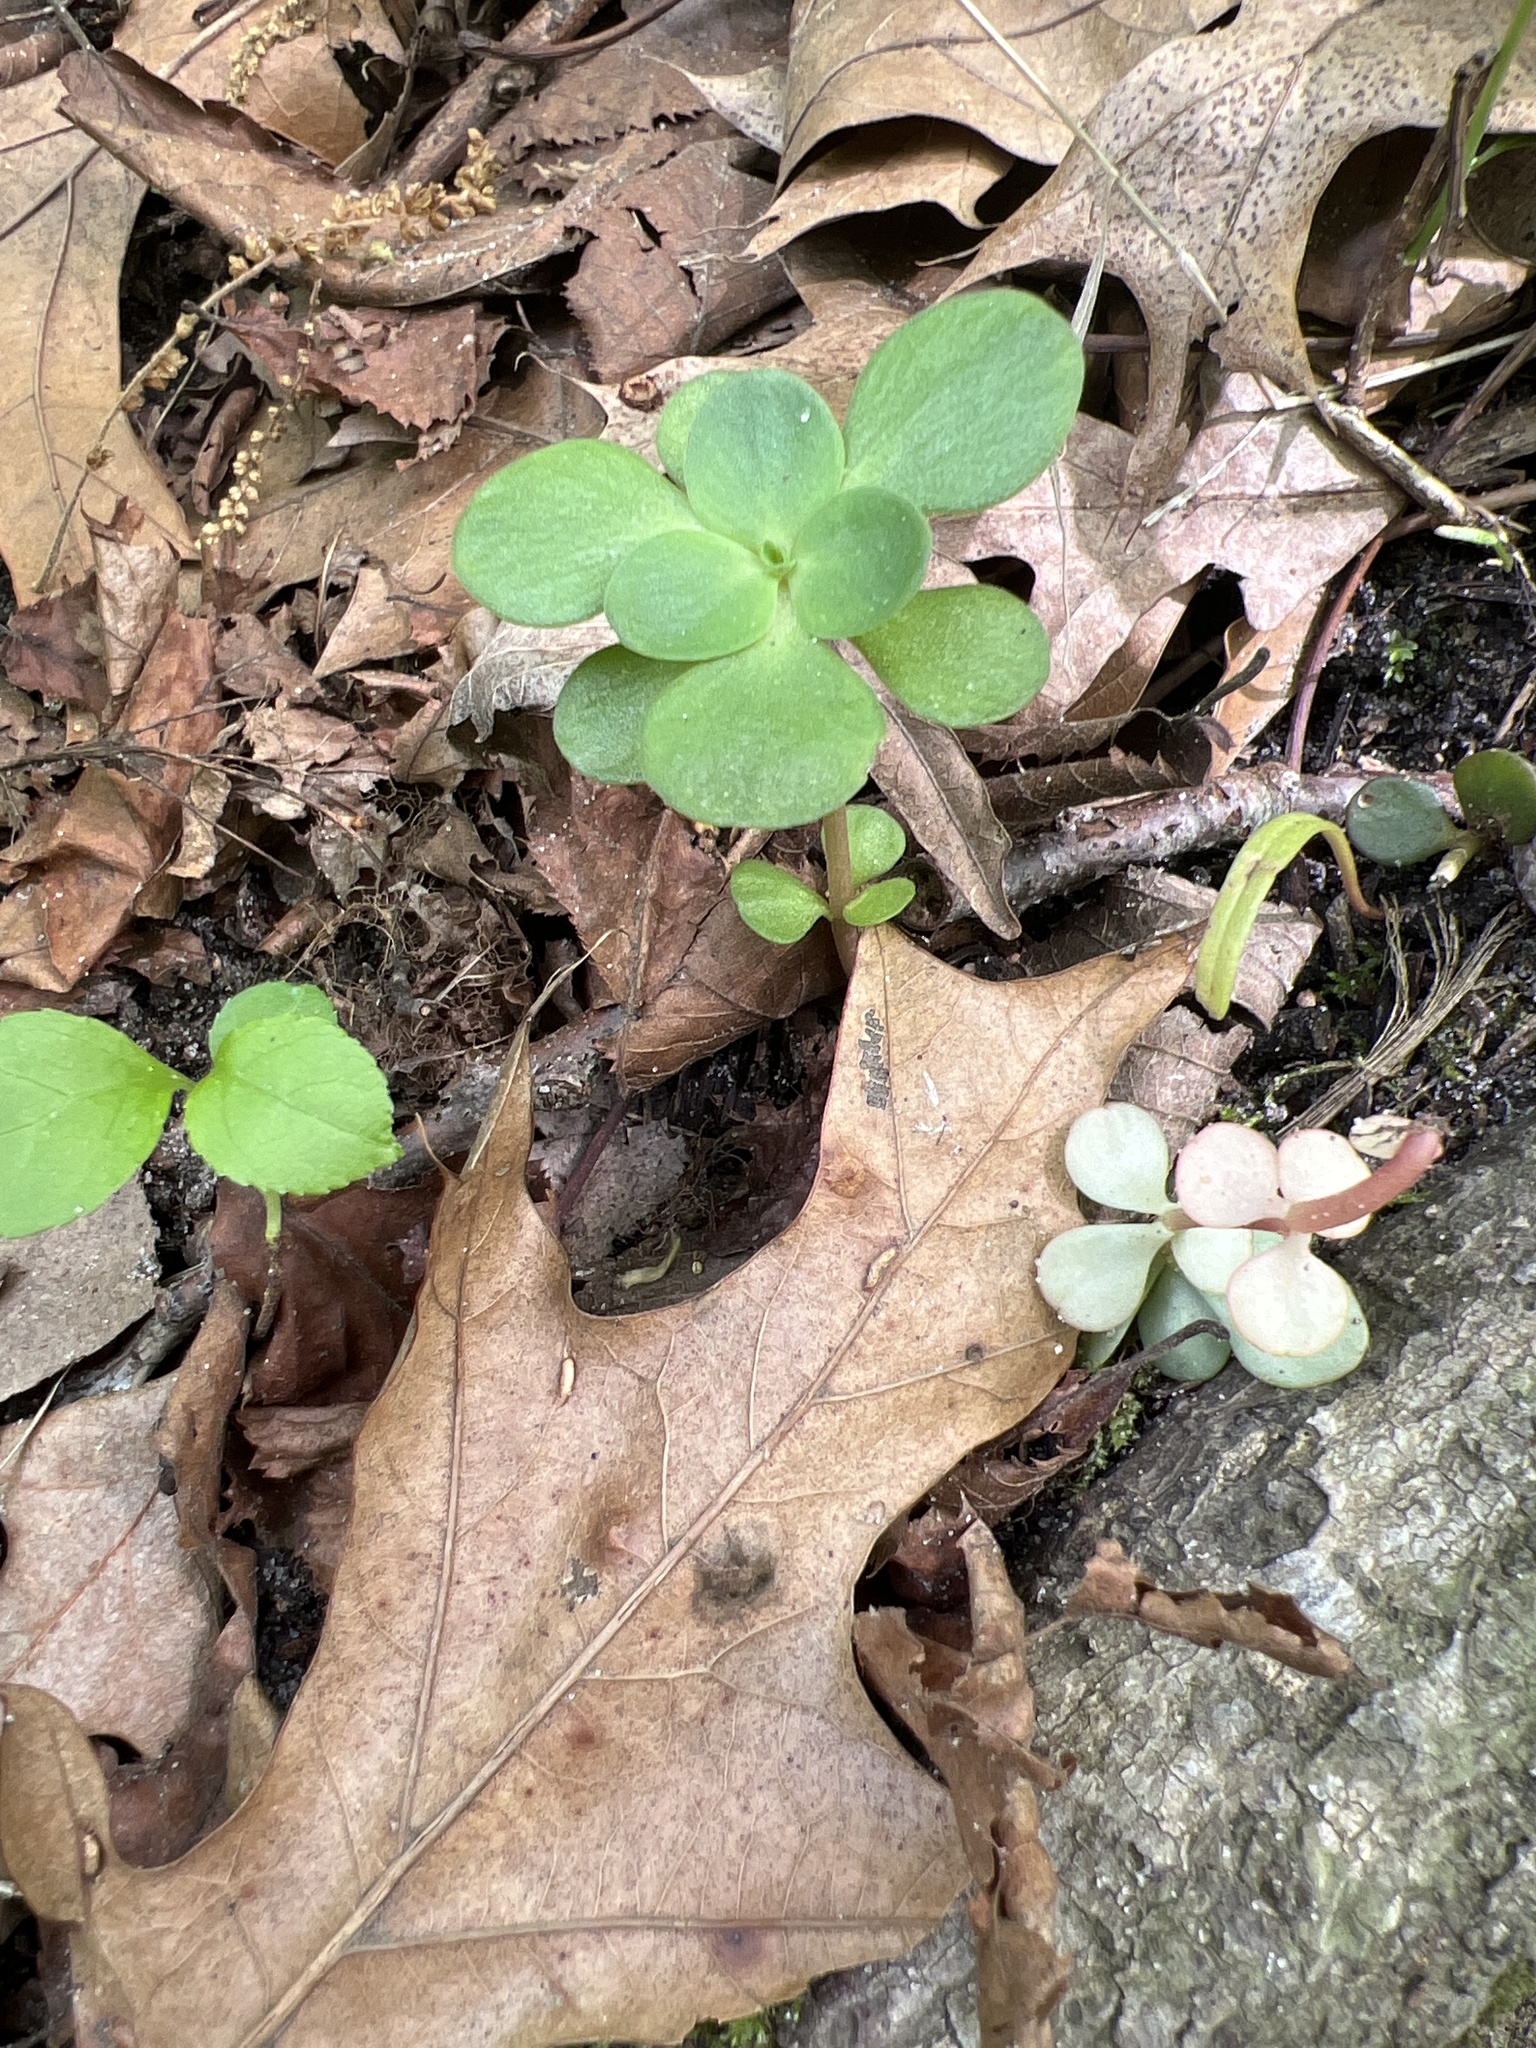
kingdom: Plantae
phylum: Tracheophyta
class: Magnoliopsida
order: Saxifragales
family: Crassulaceae
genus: Sedum
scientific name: Sedum ternatum
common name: Wild stonecrop
